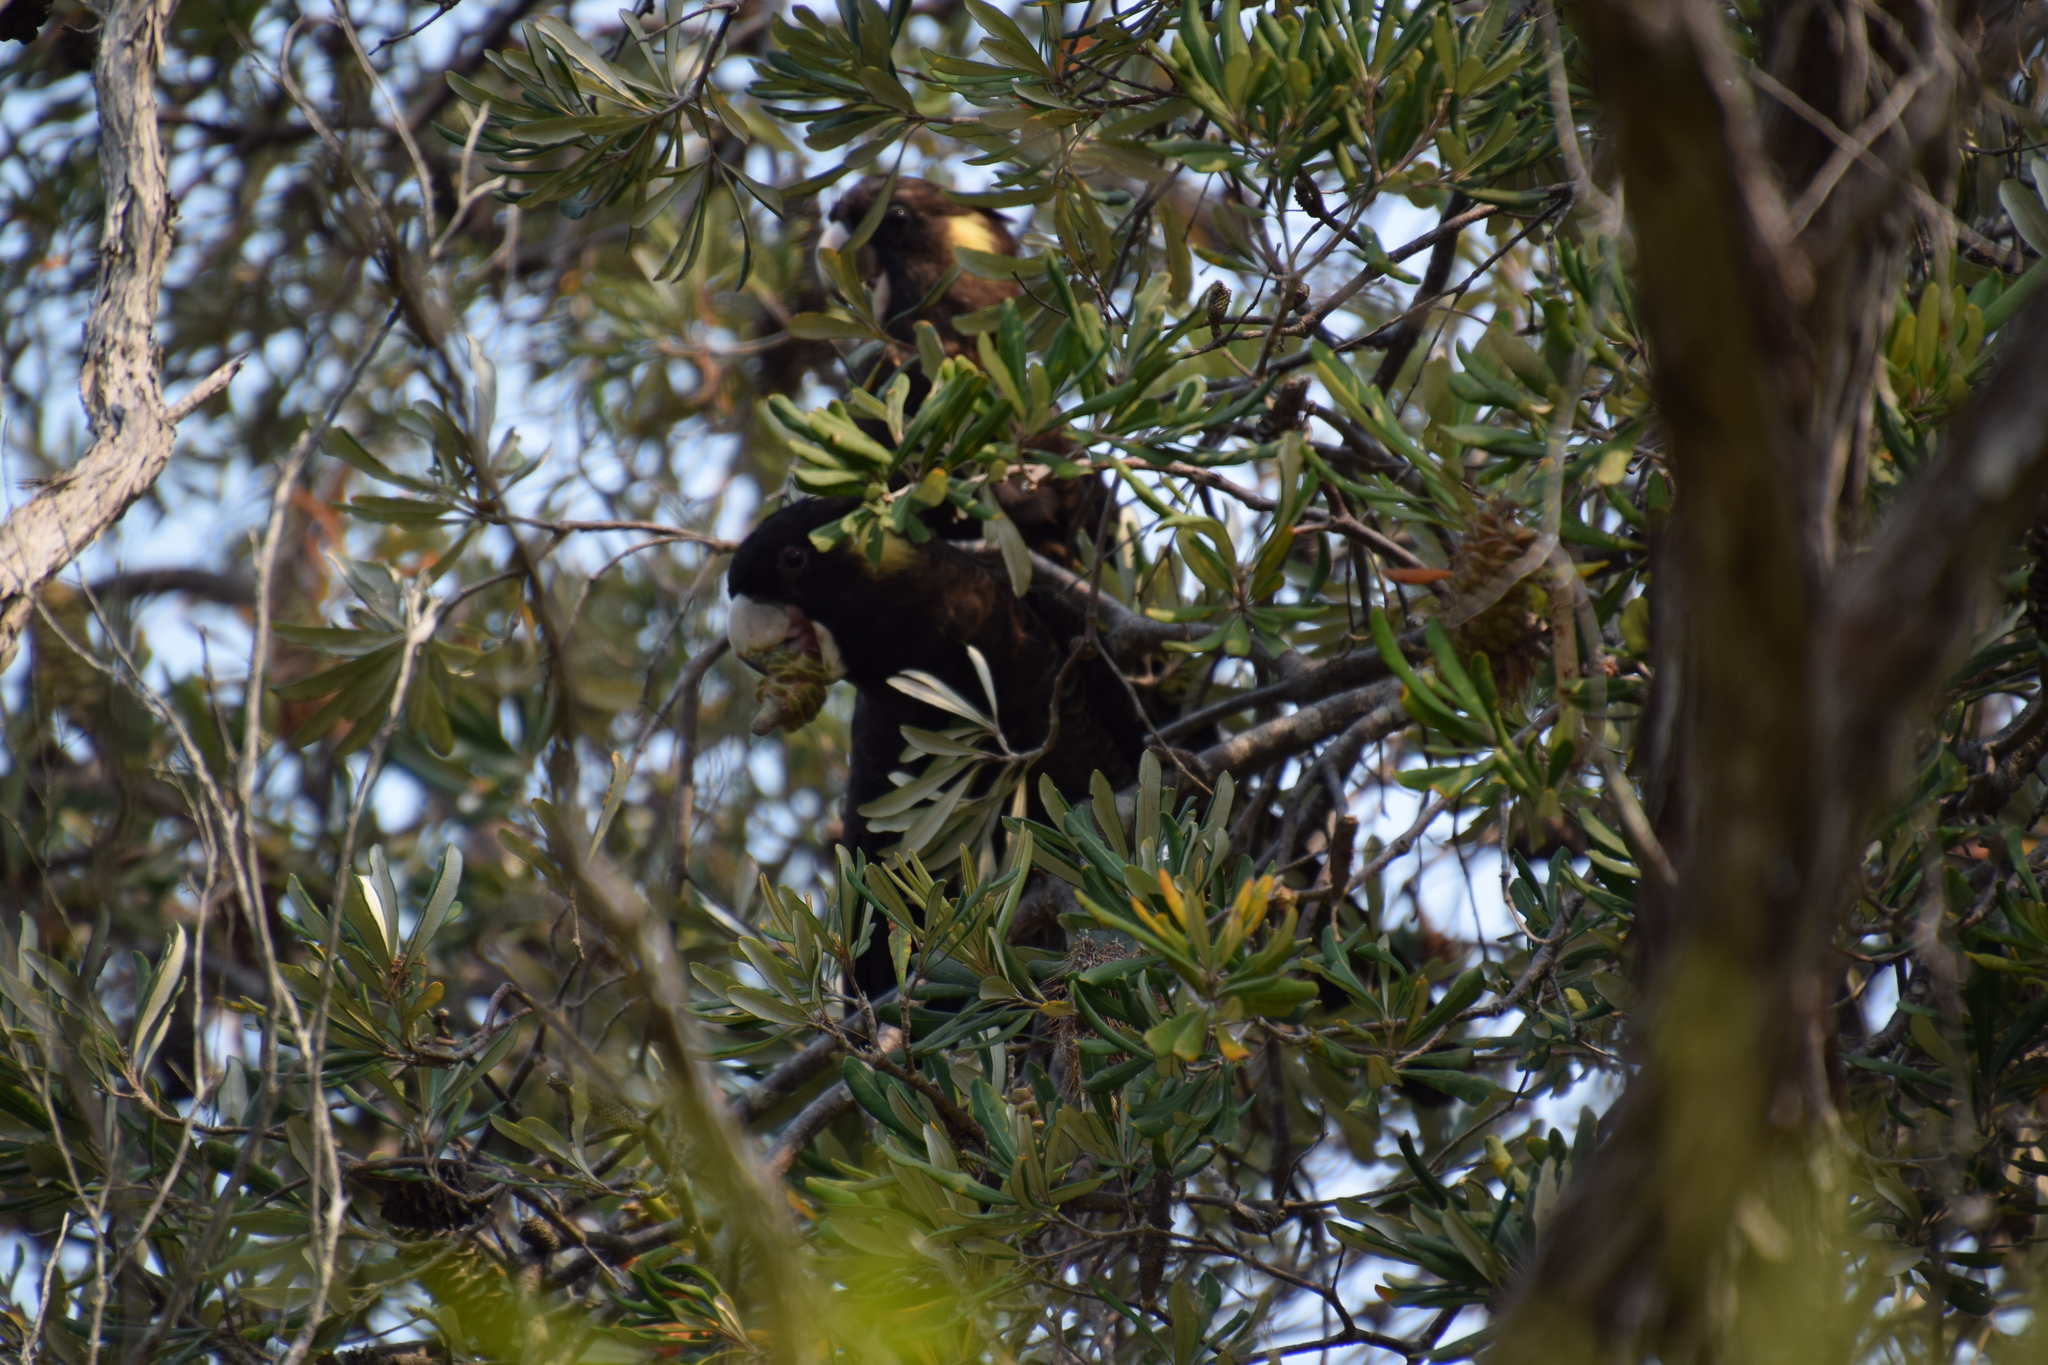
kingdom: Animalia
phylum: Chordata
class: Aves
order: Psittaciformes
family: Cacatuidae
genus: Zanda
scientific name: Zanda funerea
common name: Yellow-tailed black-cockatoo
